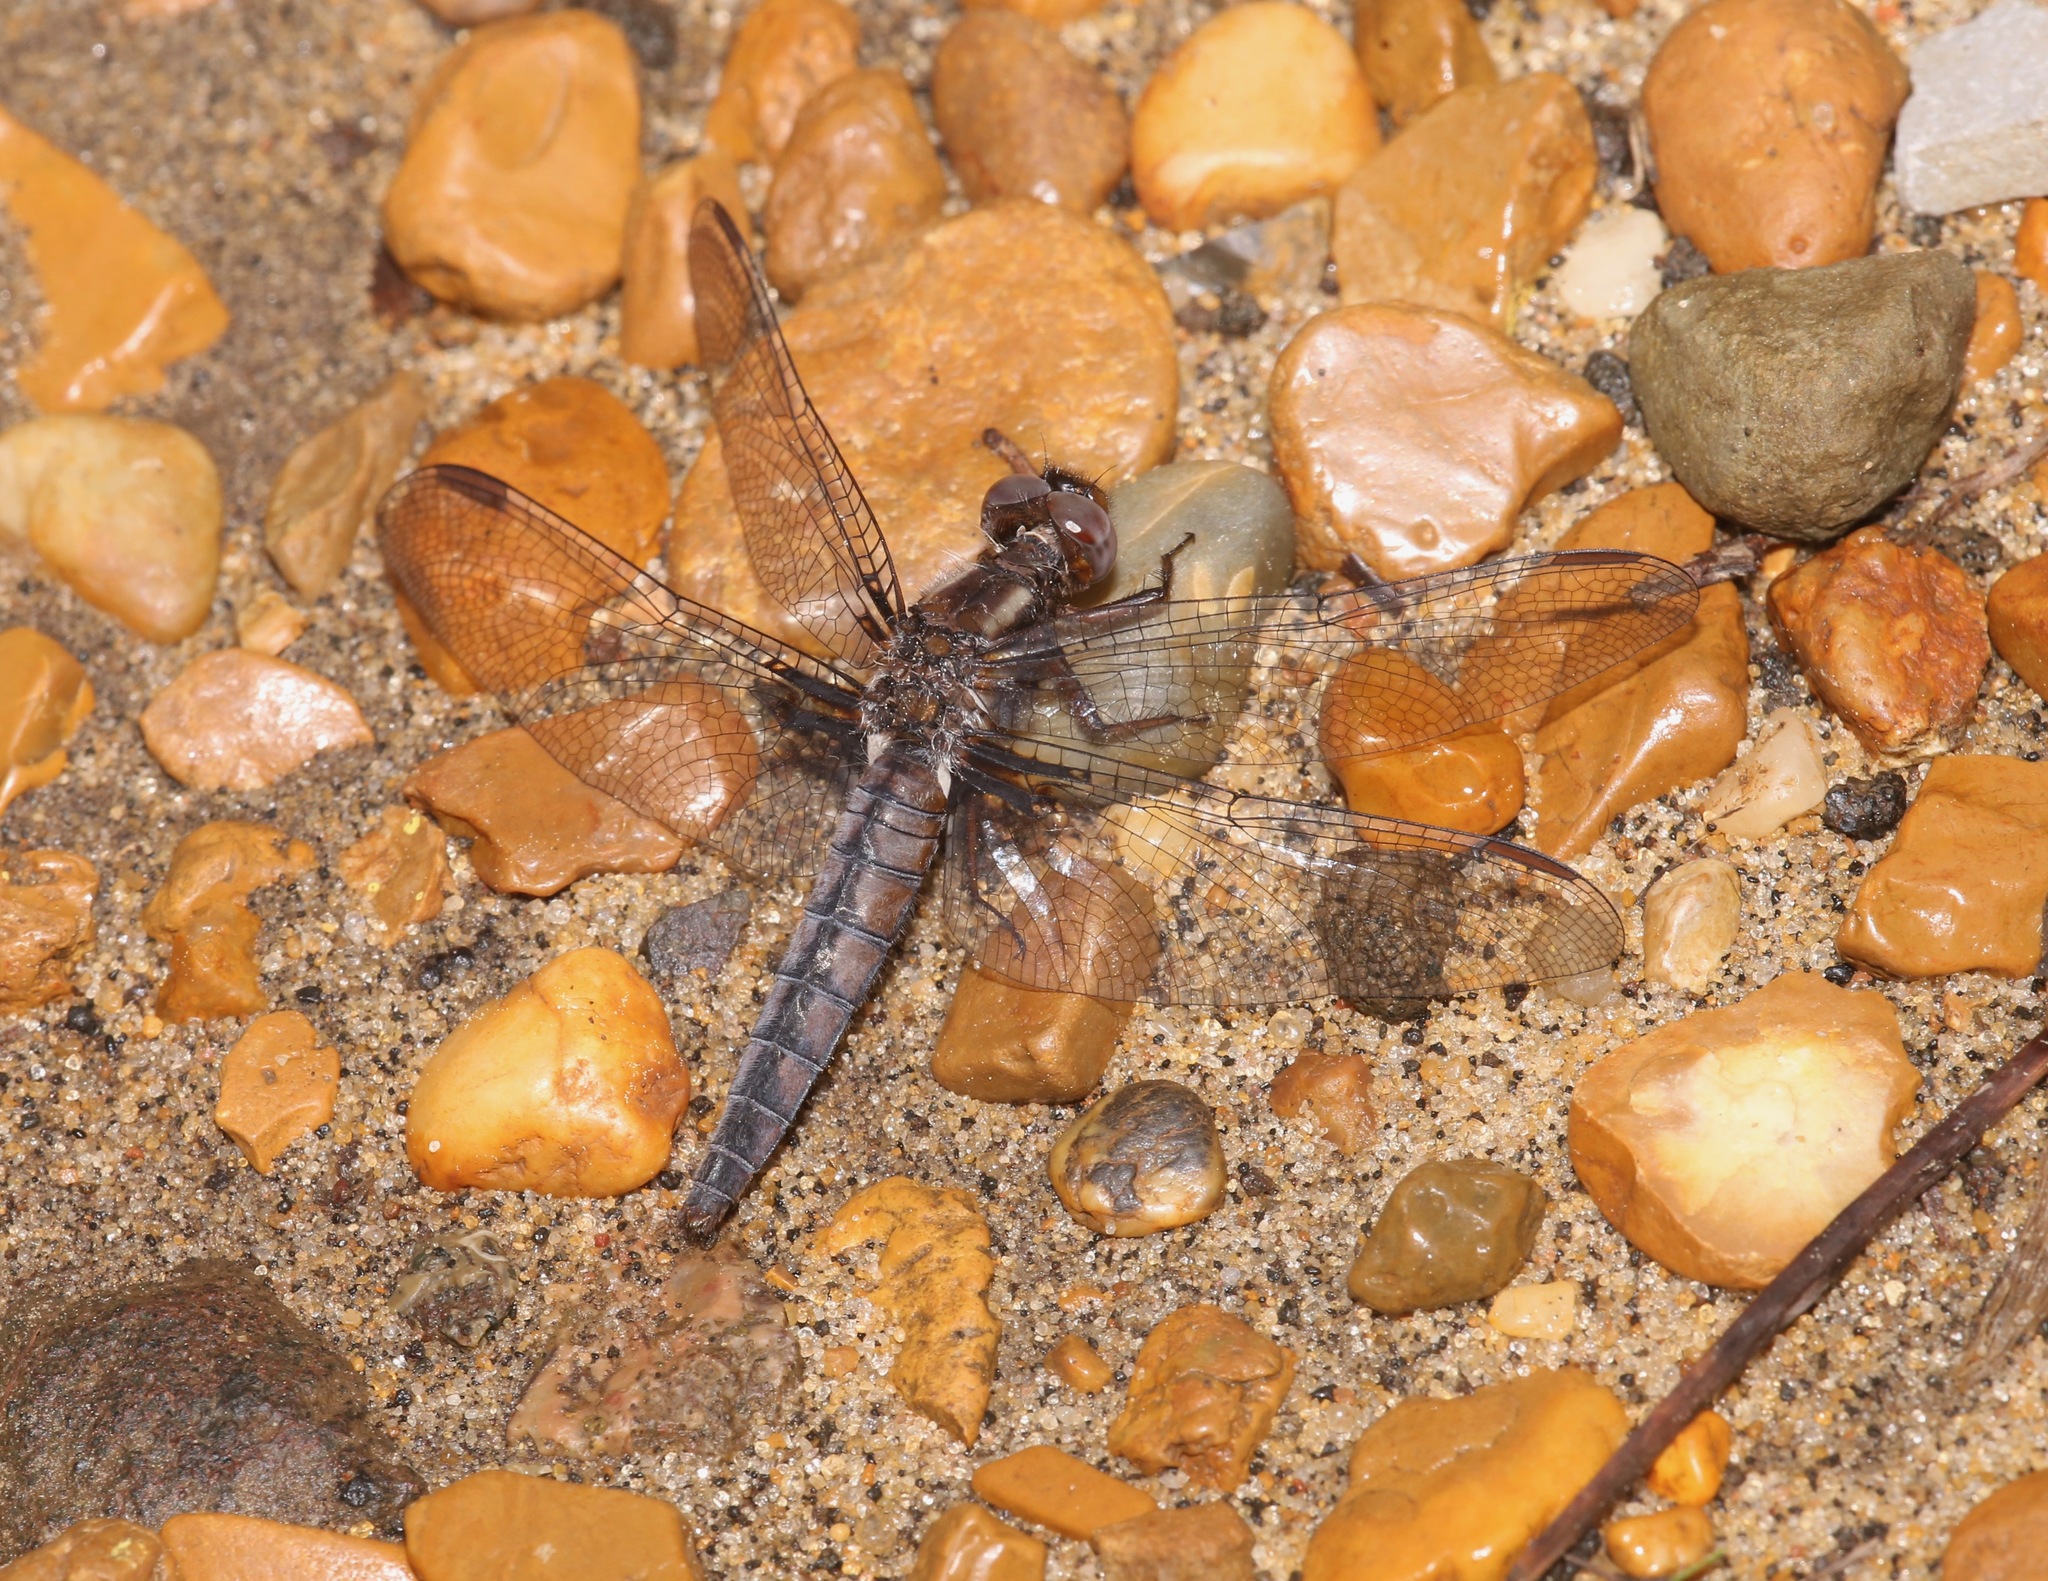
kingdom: Animalia
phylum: Arthropoda
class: Insecta
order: Odonata
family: Libellulidae
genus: Ladona
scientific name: Ladona deplanata
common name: Blue corporal
